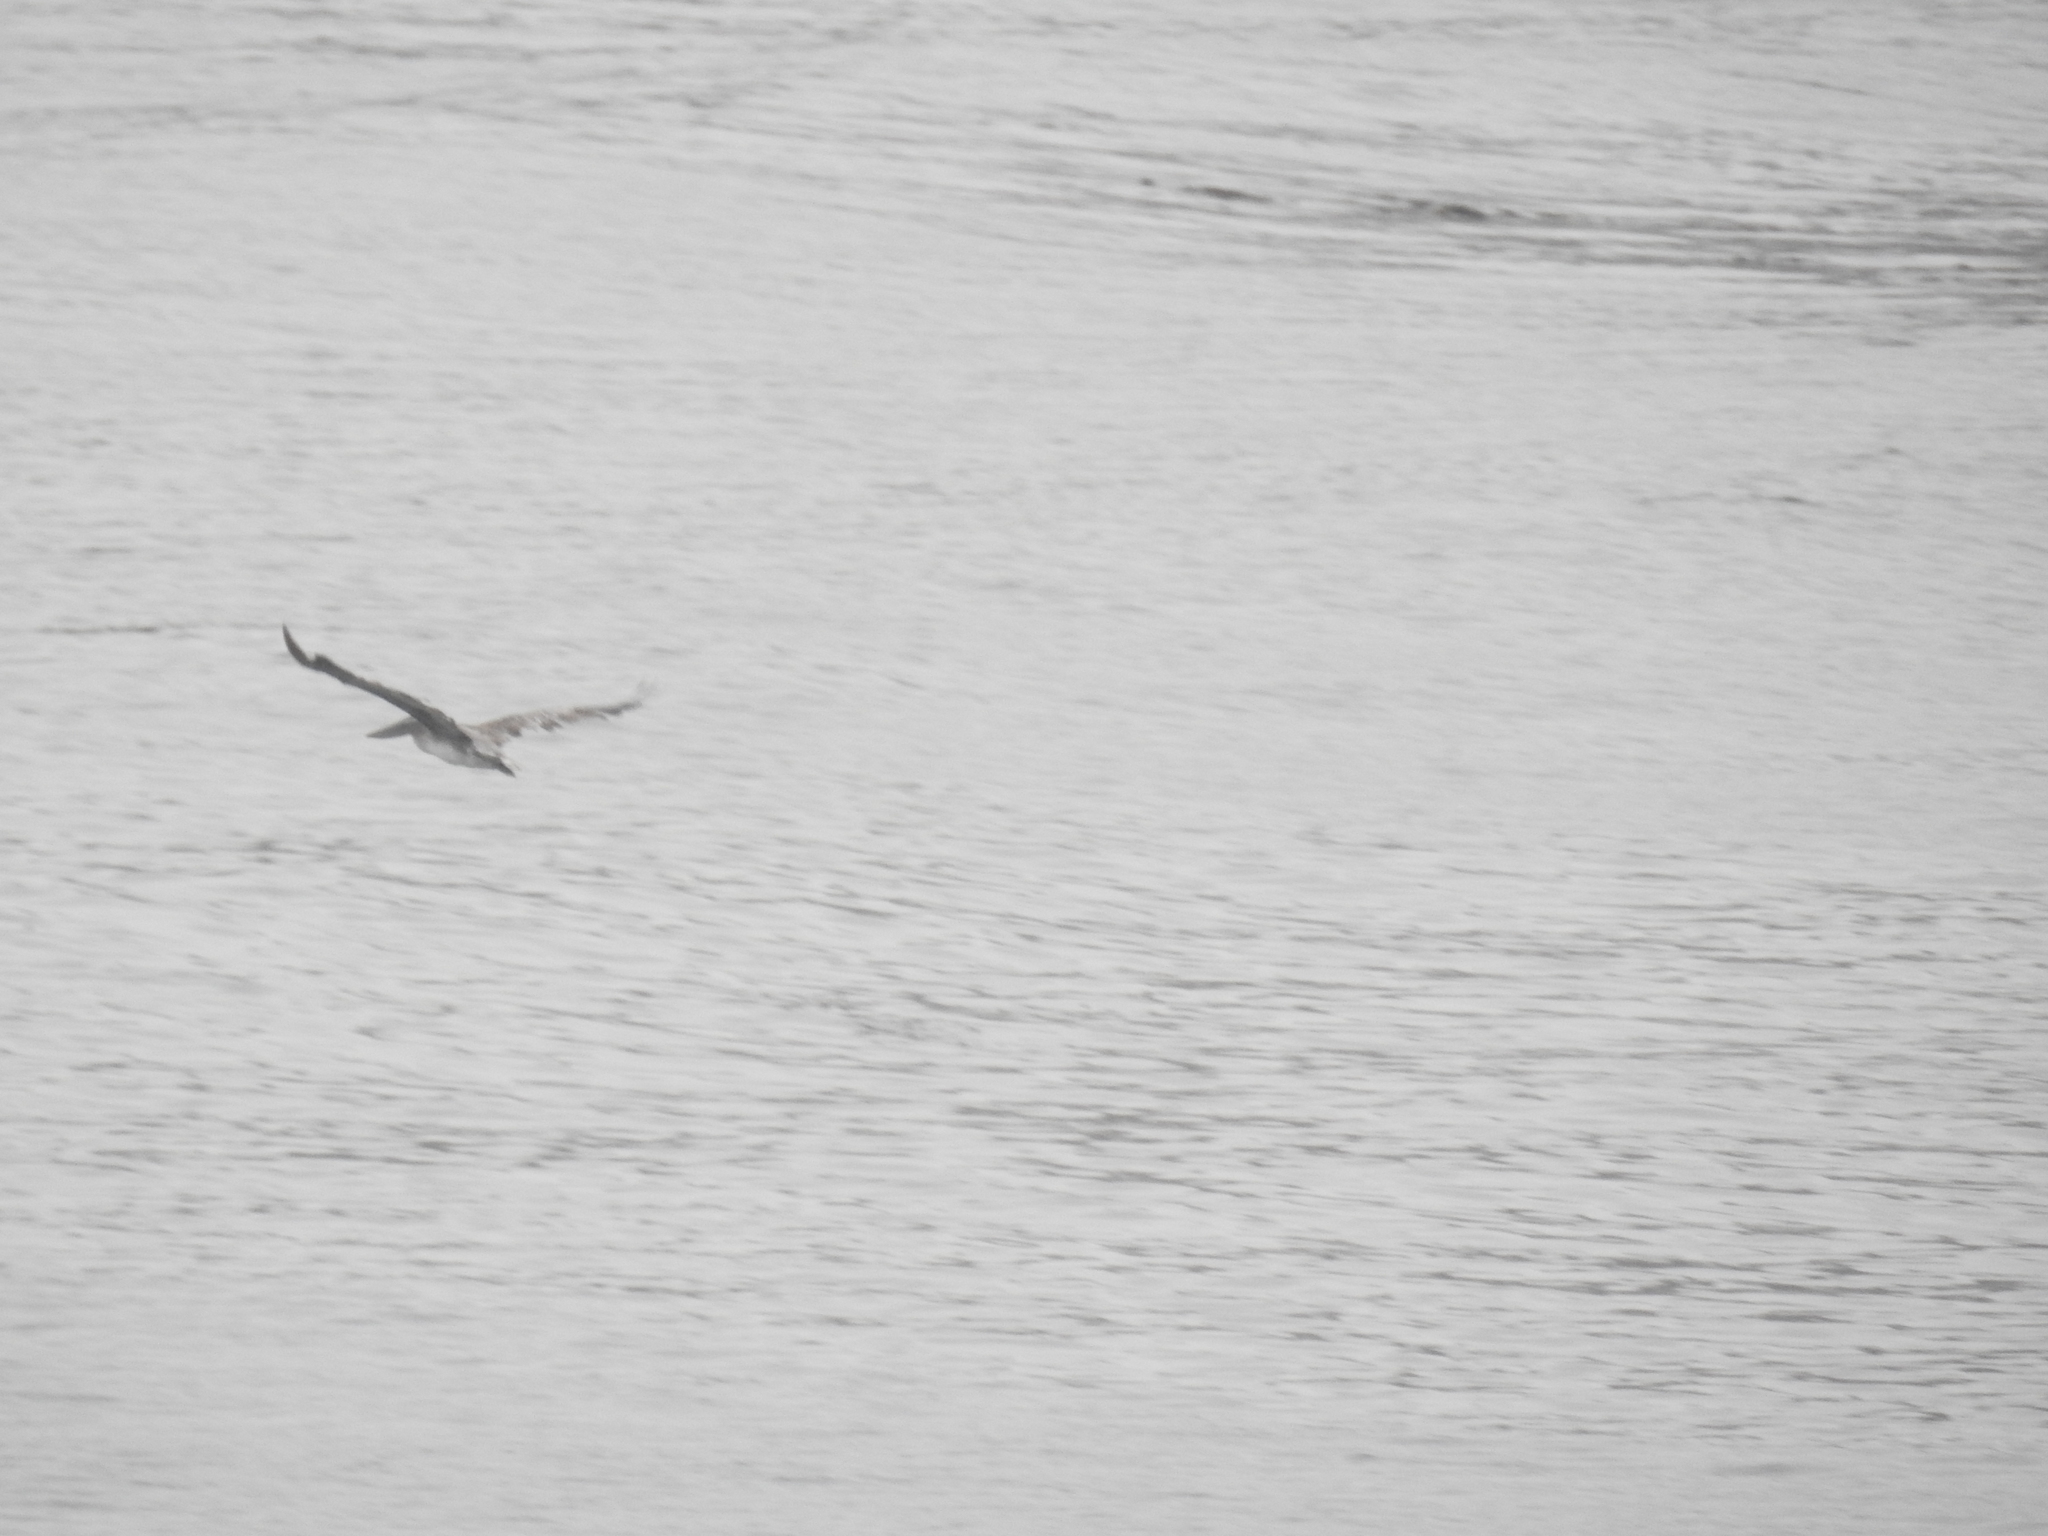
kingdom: Animalia
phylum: Chordata
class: Aves
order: Pelecaniformes
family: Pelecanidae
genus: Pelecanus
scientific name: Pelecanus occidentalis
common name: Brown pelican
